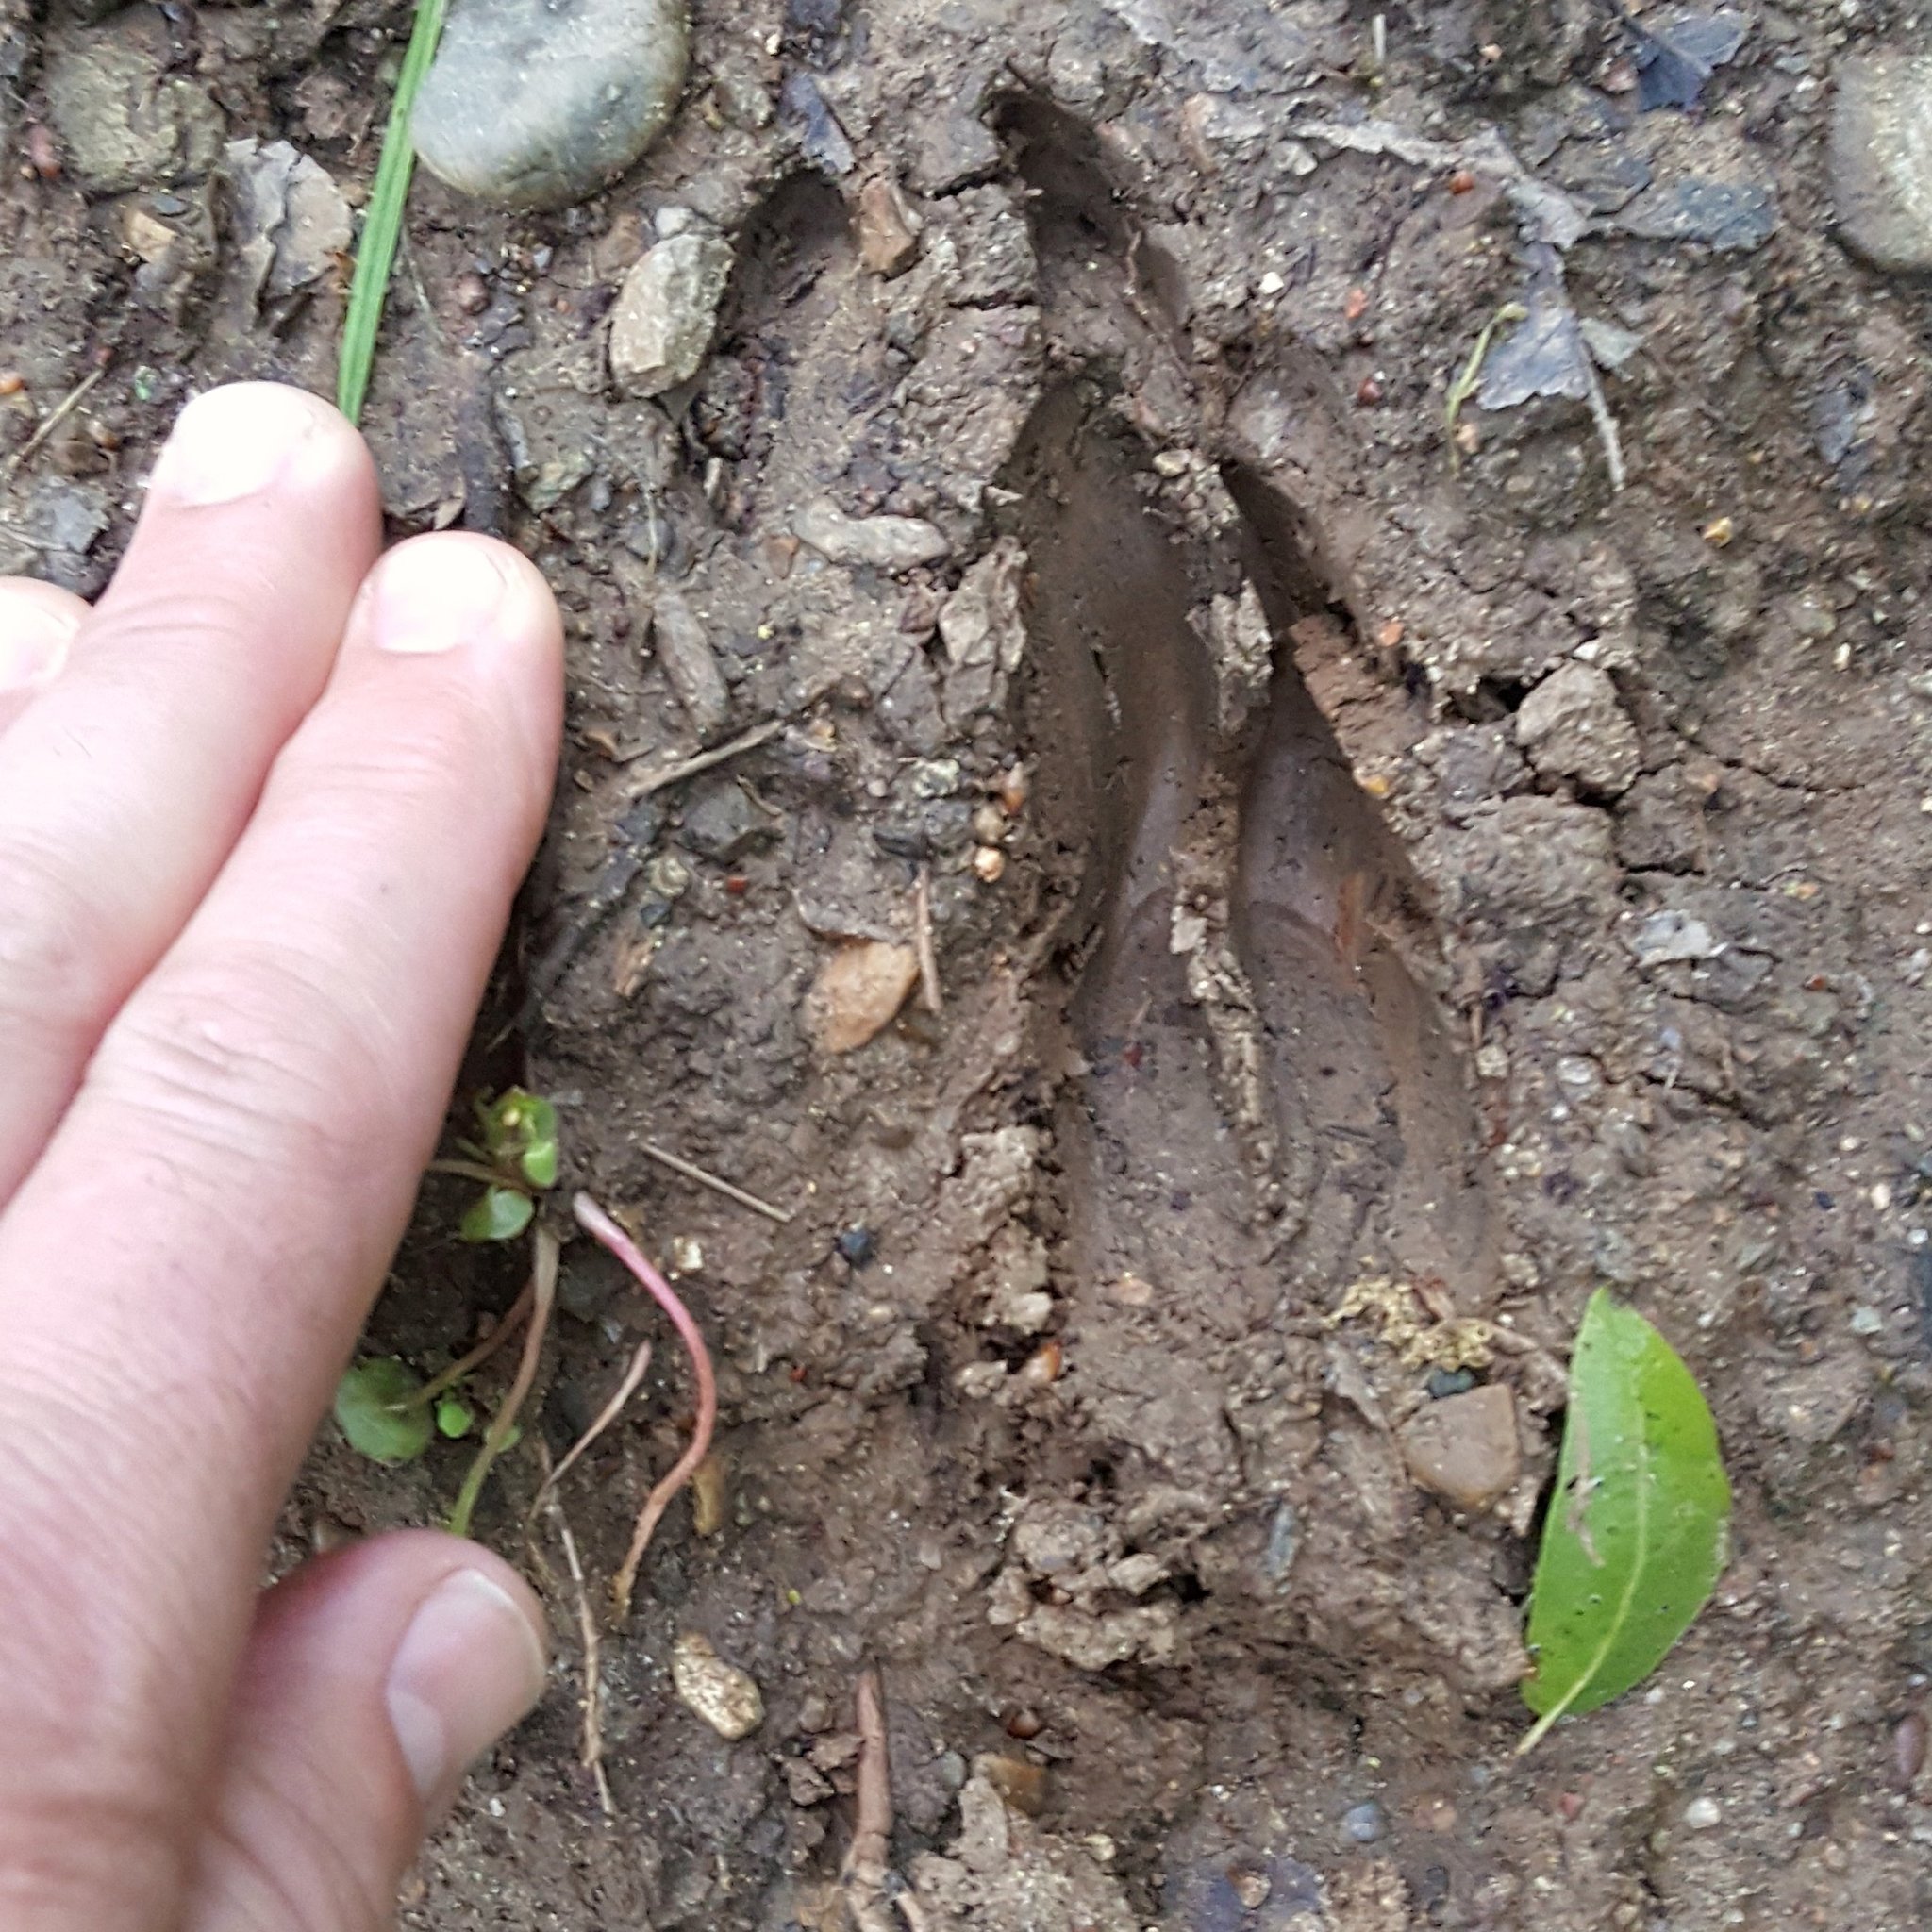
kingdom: Animalia
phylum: Chordata
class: Mammalia
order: Artiodactyla
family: Cervidae
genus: Odocoileus
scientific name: Odocoileus hemionus
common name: Mule deer
